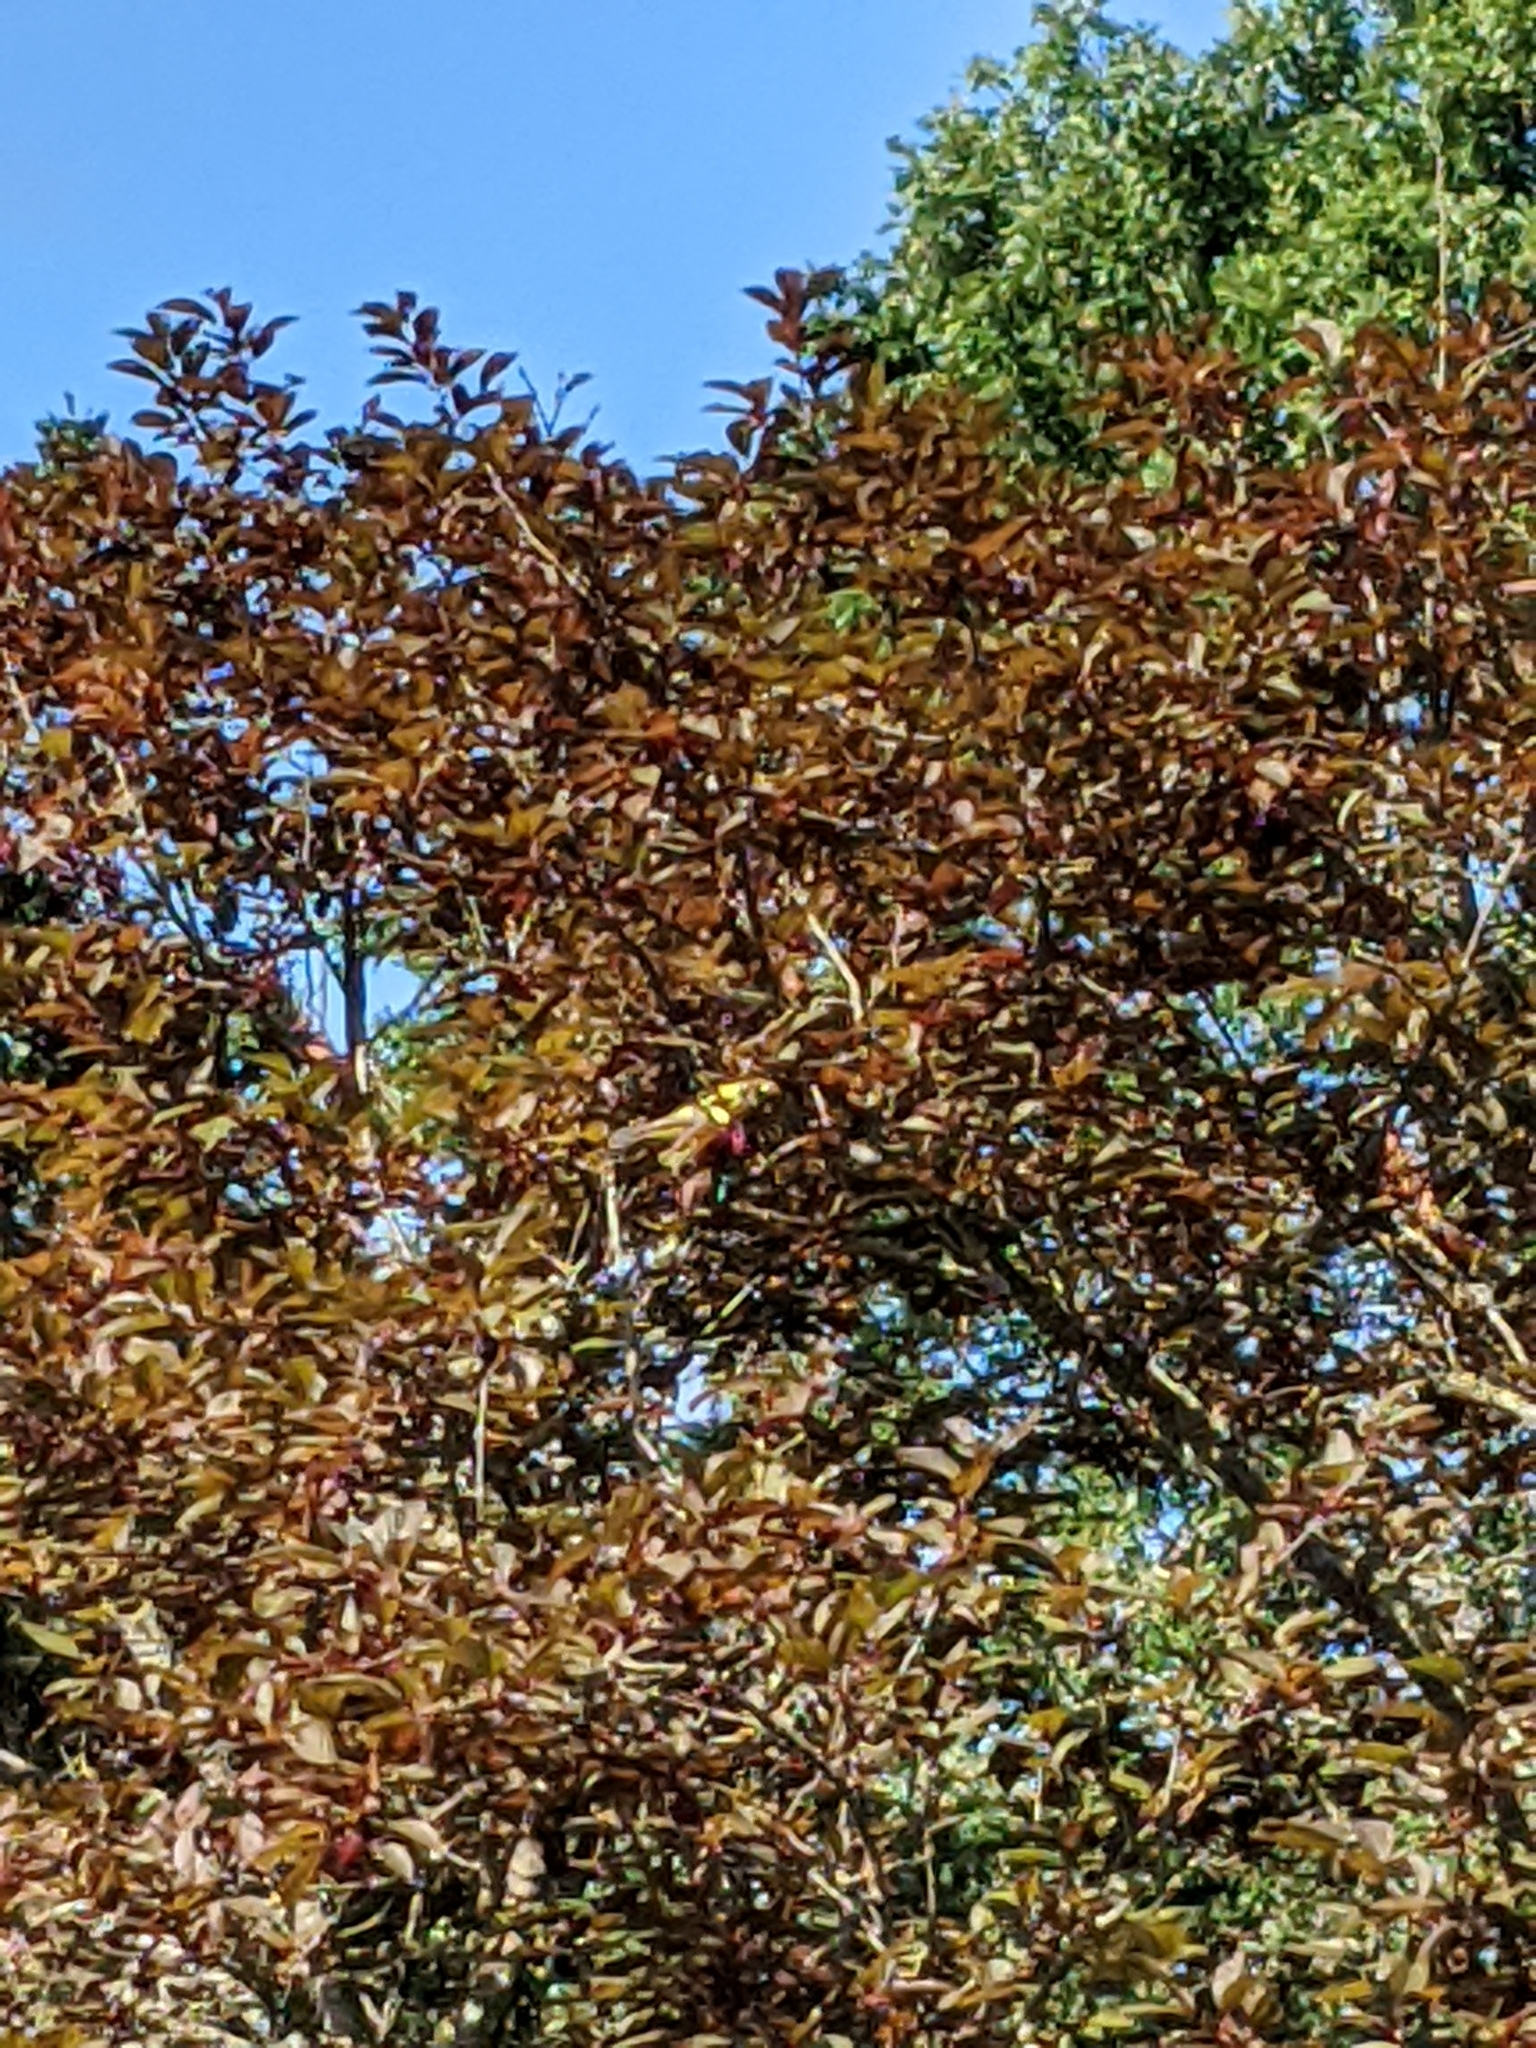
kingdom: Animalia
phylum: Chordata
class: Aves
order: Passeriformes
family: Fringillidae
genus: Spinus
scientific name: Spinus tristis
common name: American goldfinch
